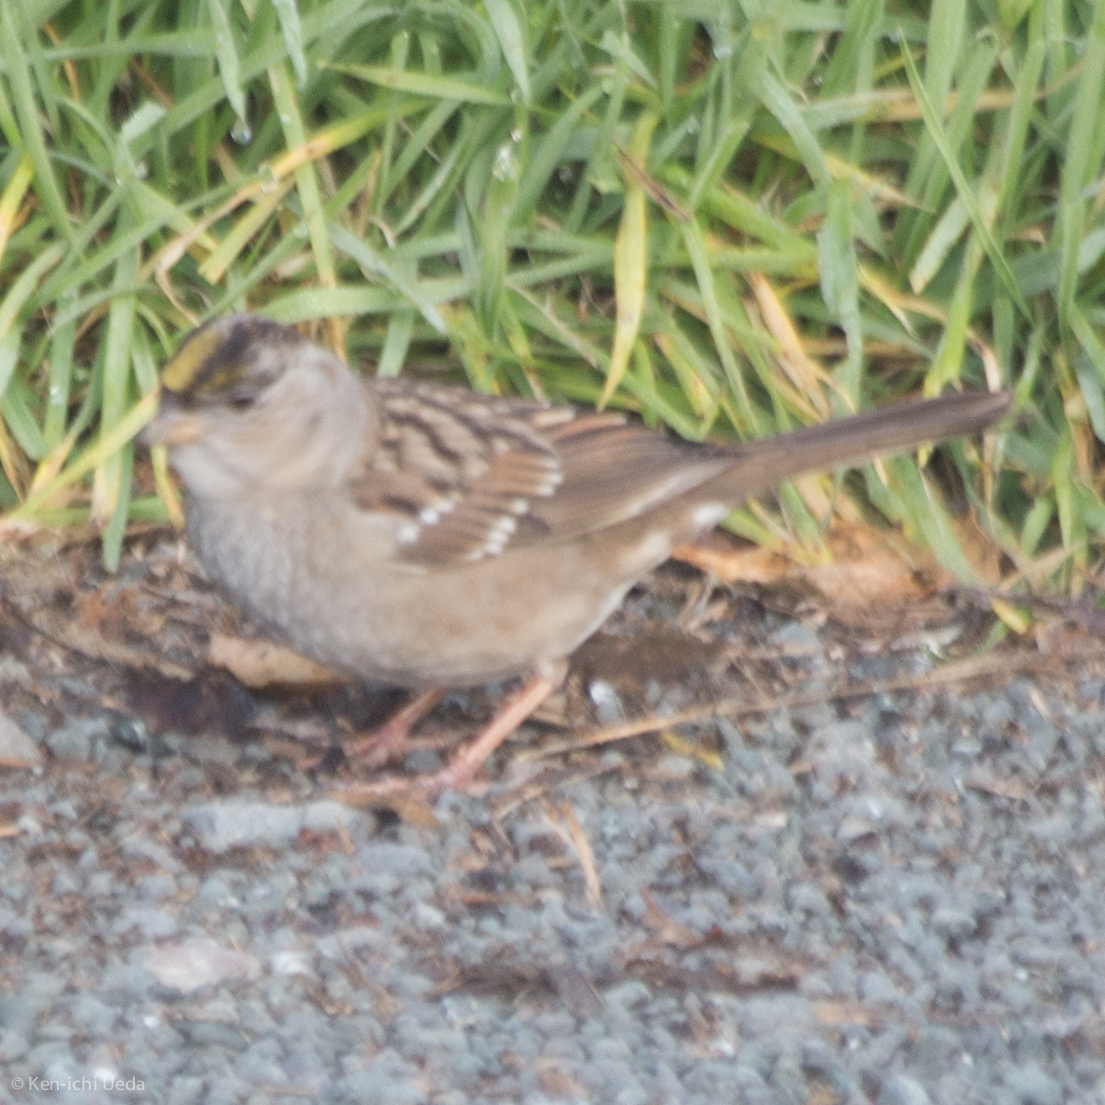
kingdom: Animalia
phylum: Chordata
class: Aves
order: Passeriformes
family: Passerellidae
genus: Zonotrichia
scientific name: Zonotrichia atricapilla
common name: Golden-crowned sparrow
